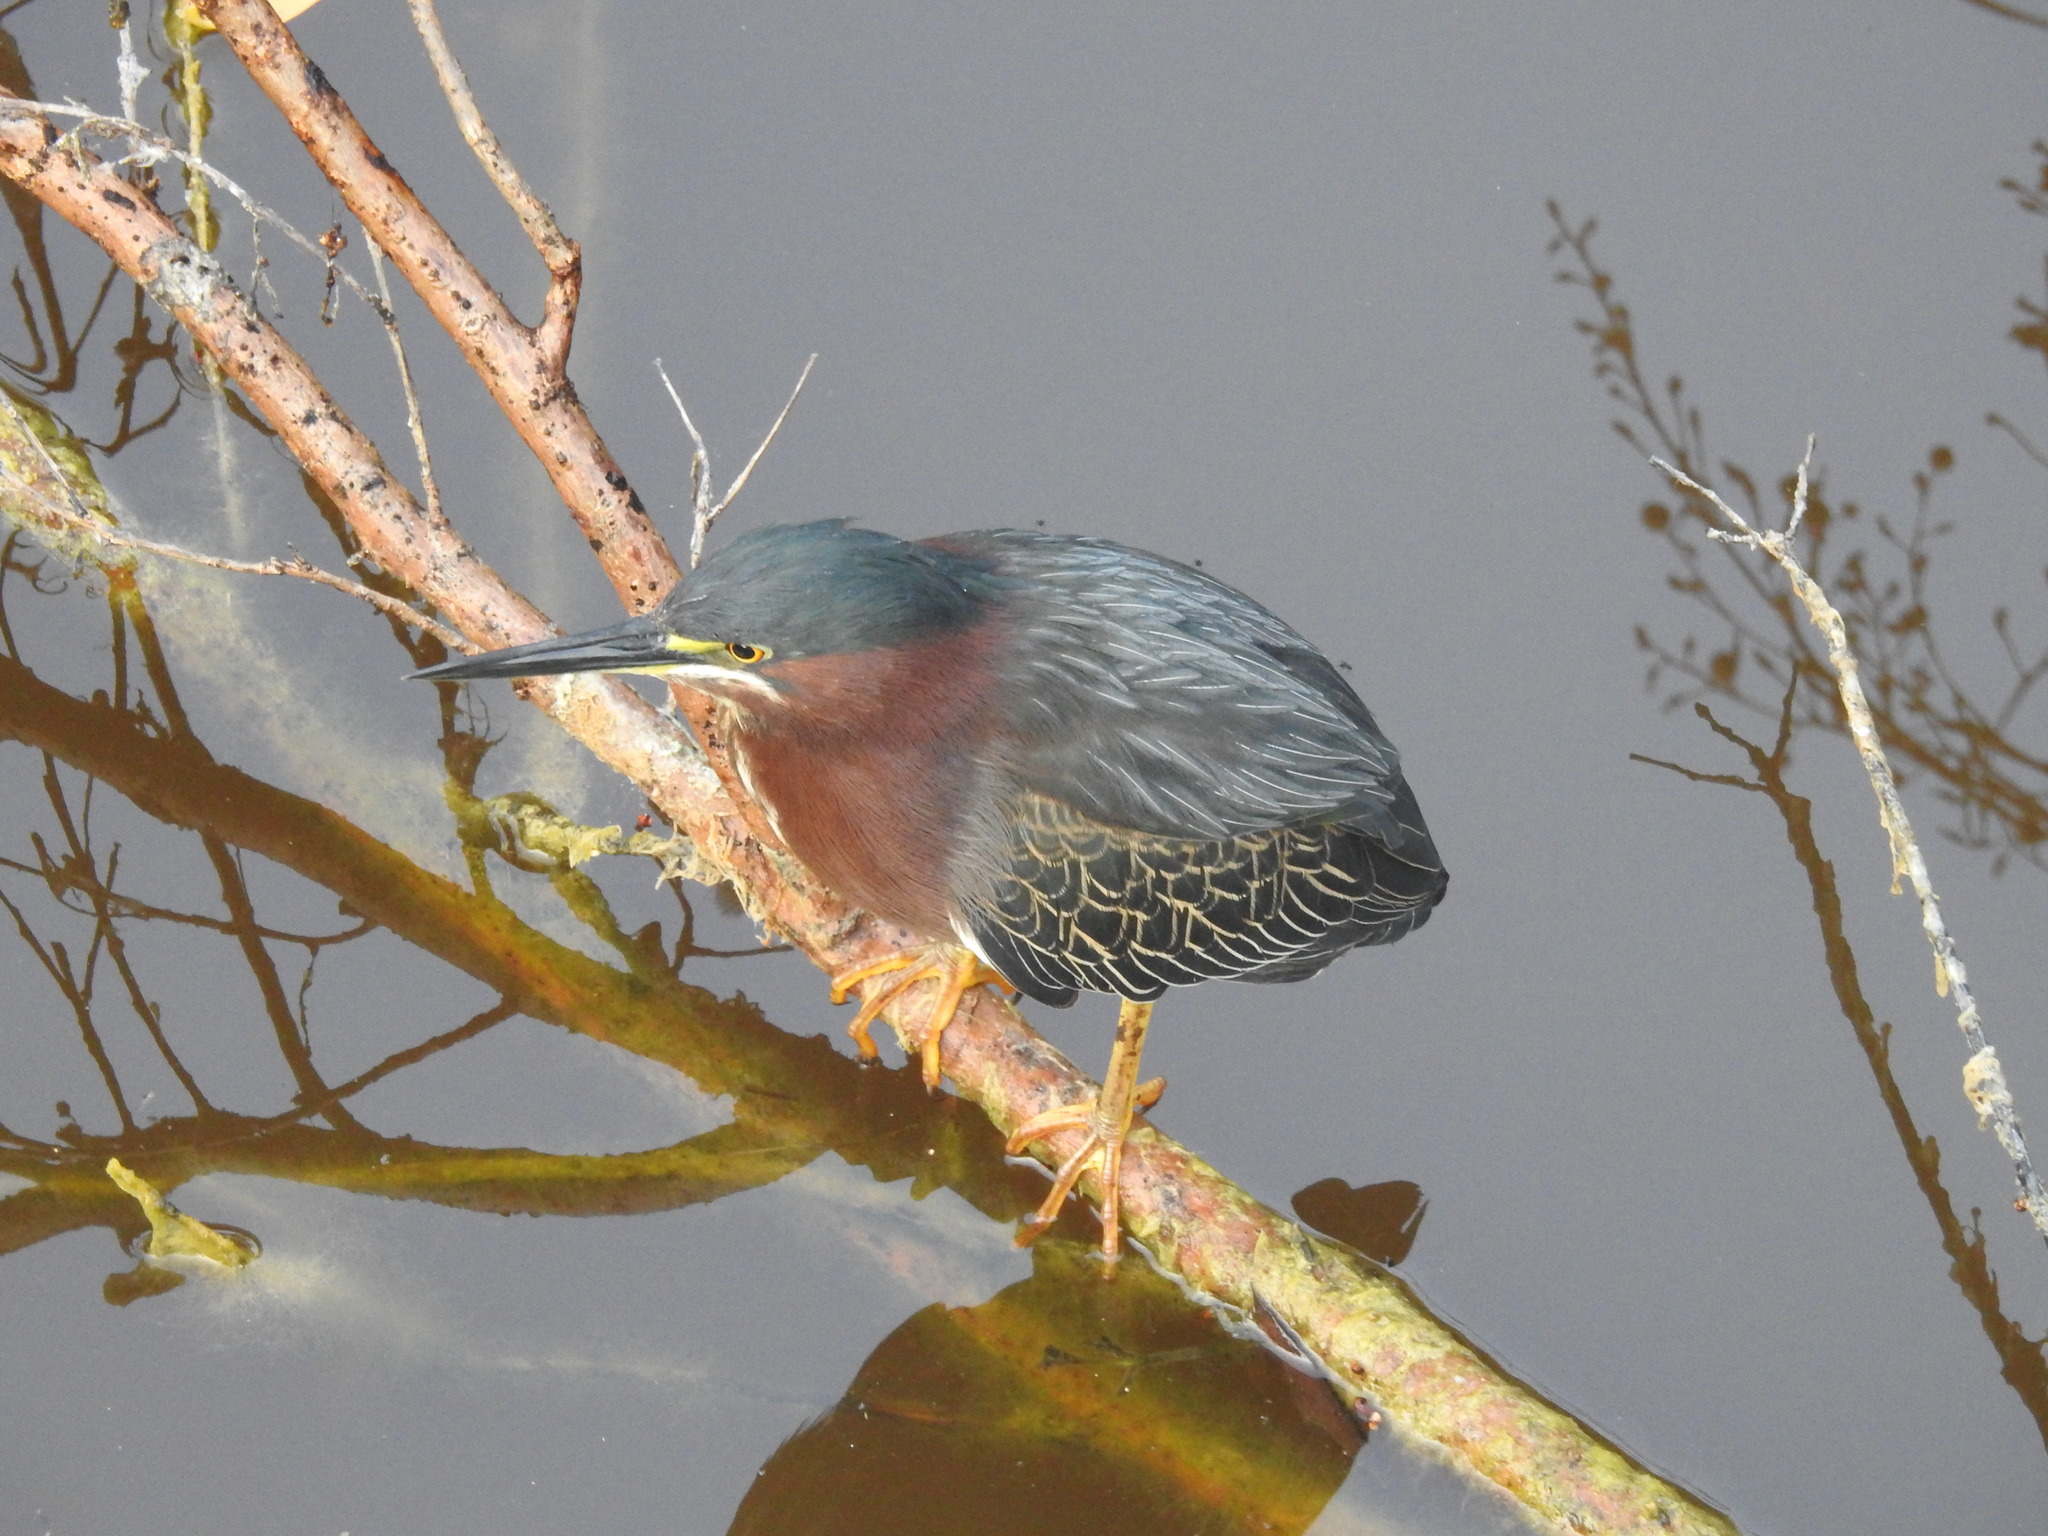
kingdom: Animalia
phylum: Chordata
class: Aves
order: Pelecaniformes
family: Ardeidae
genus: Butorides
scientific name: Butorides virescens
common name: Green heron
